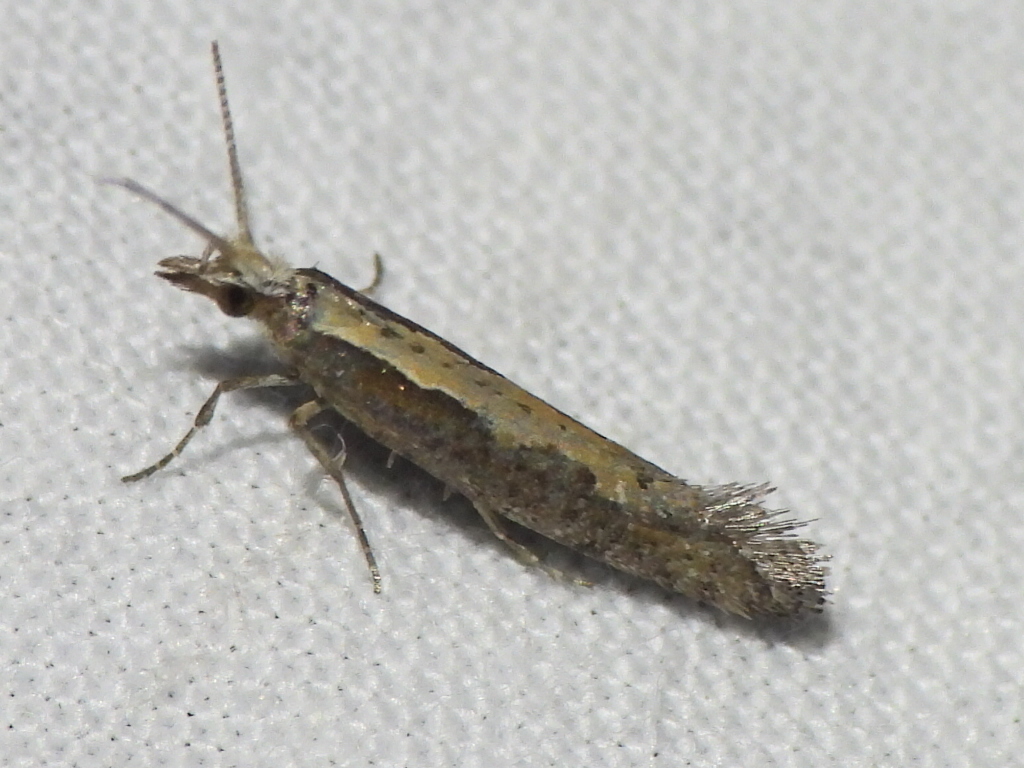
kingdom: Animalia
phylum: Arthropoda
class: Insecta
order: Lepidoptera
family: Plutellidae
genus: Plutella
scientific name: Plutella xylostella
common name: Diamond-back moth
